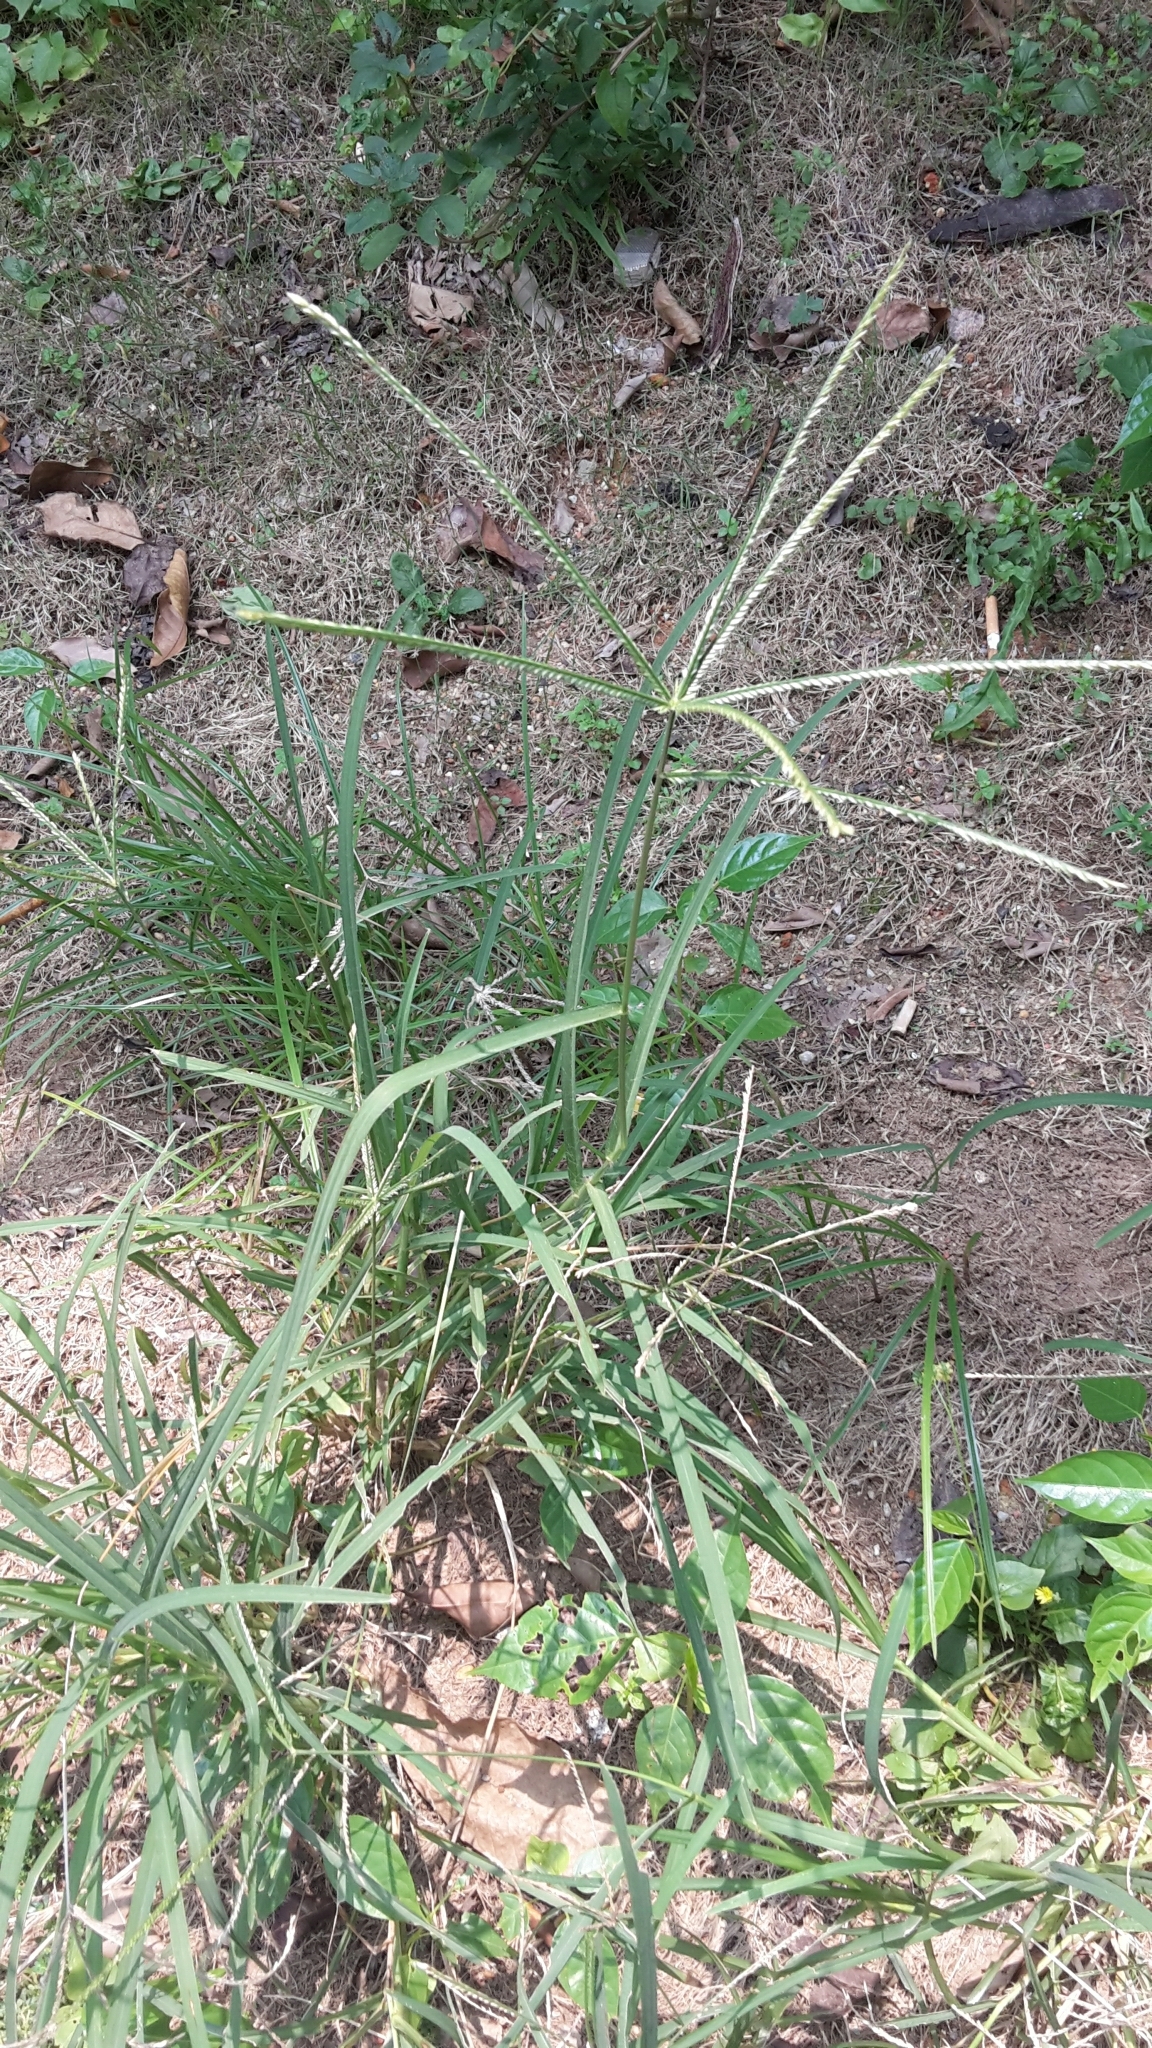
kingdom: Plantae
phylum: Tracheophyta
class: Liliopsida
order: Poales
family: Poaceae
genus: Eleusine
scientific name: Eleusine indica
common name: Yard-grass
